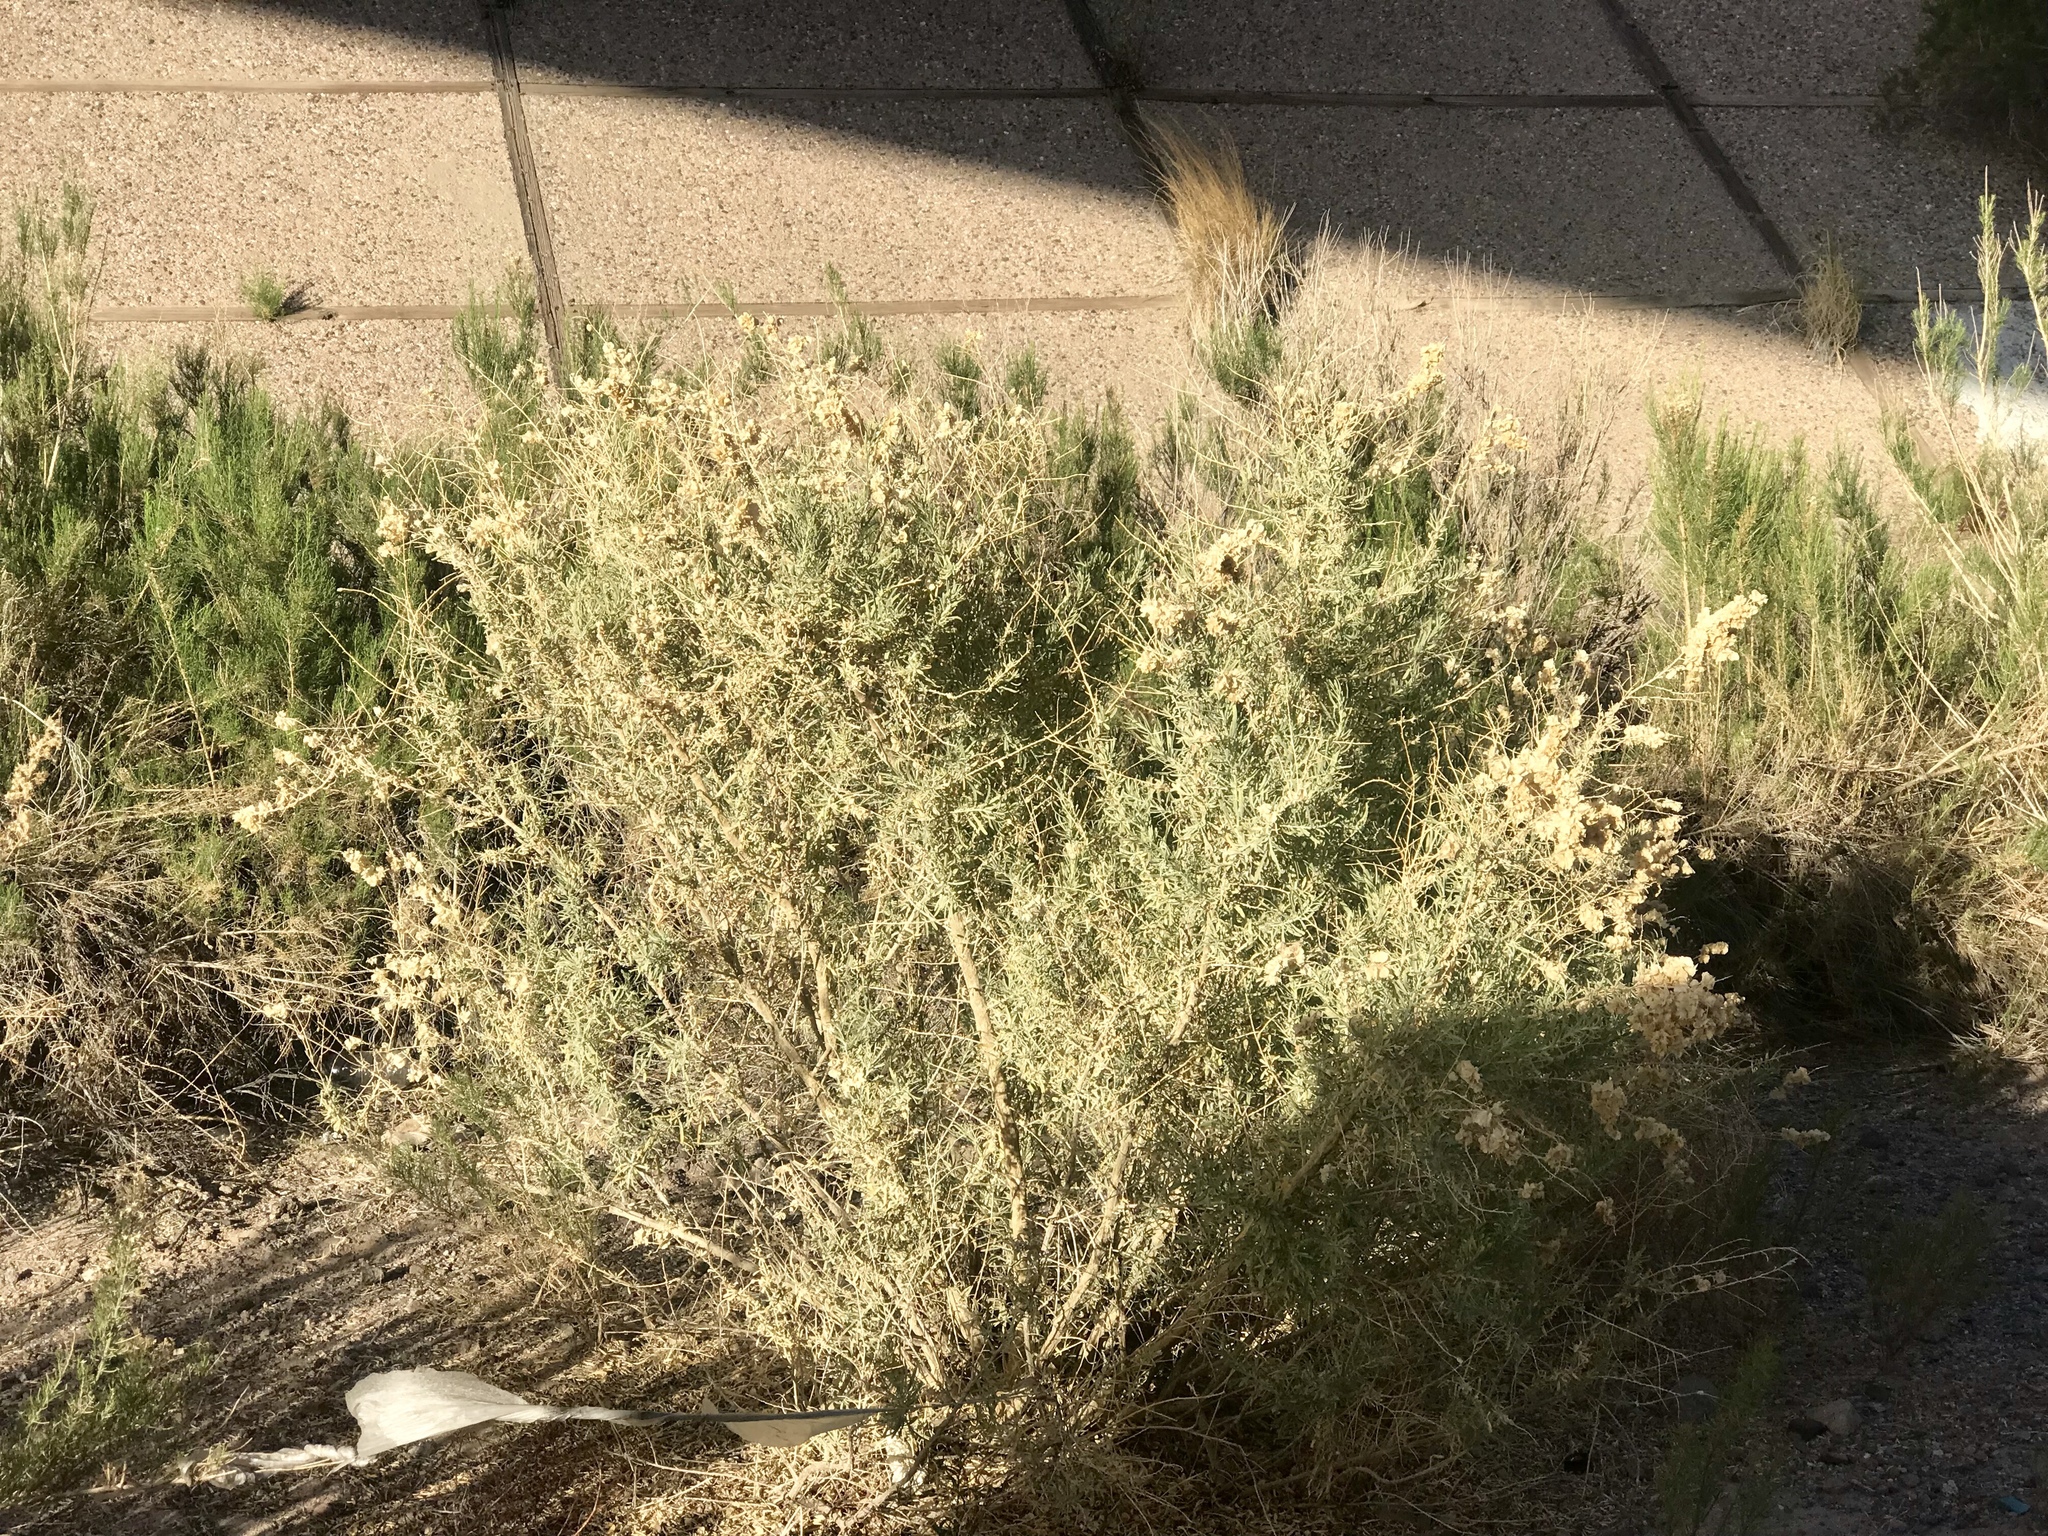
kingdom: Plantae
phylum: Tracheophyta
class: Magnoliopsida
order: Caryophyllales
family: Amaranthaceae
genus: Atriplex
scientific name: Atriplex canescens
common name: Four-wing saltbush
